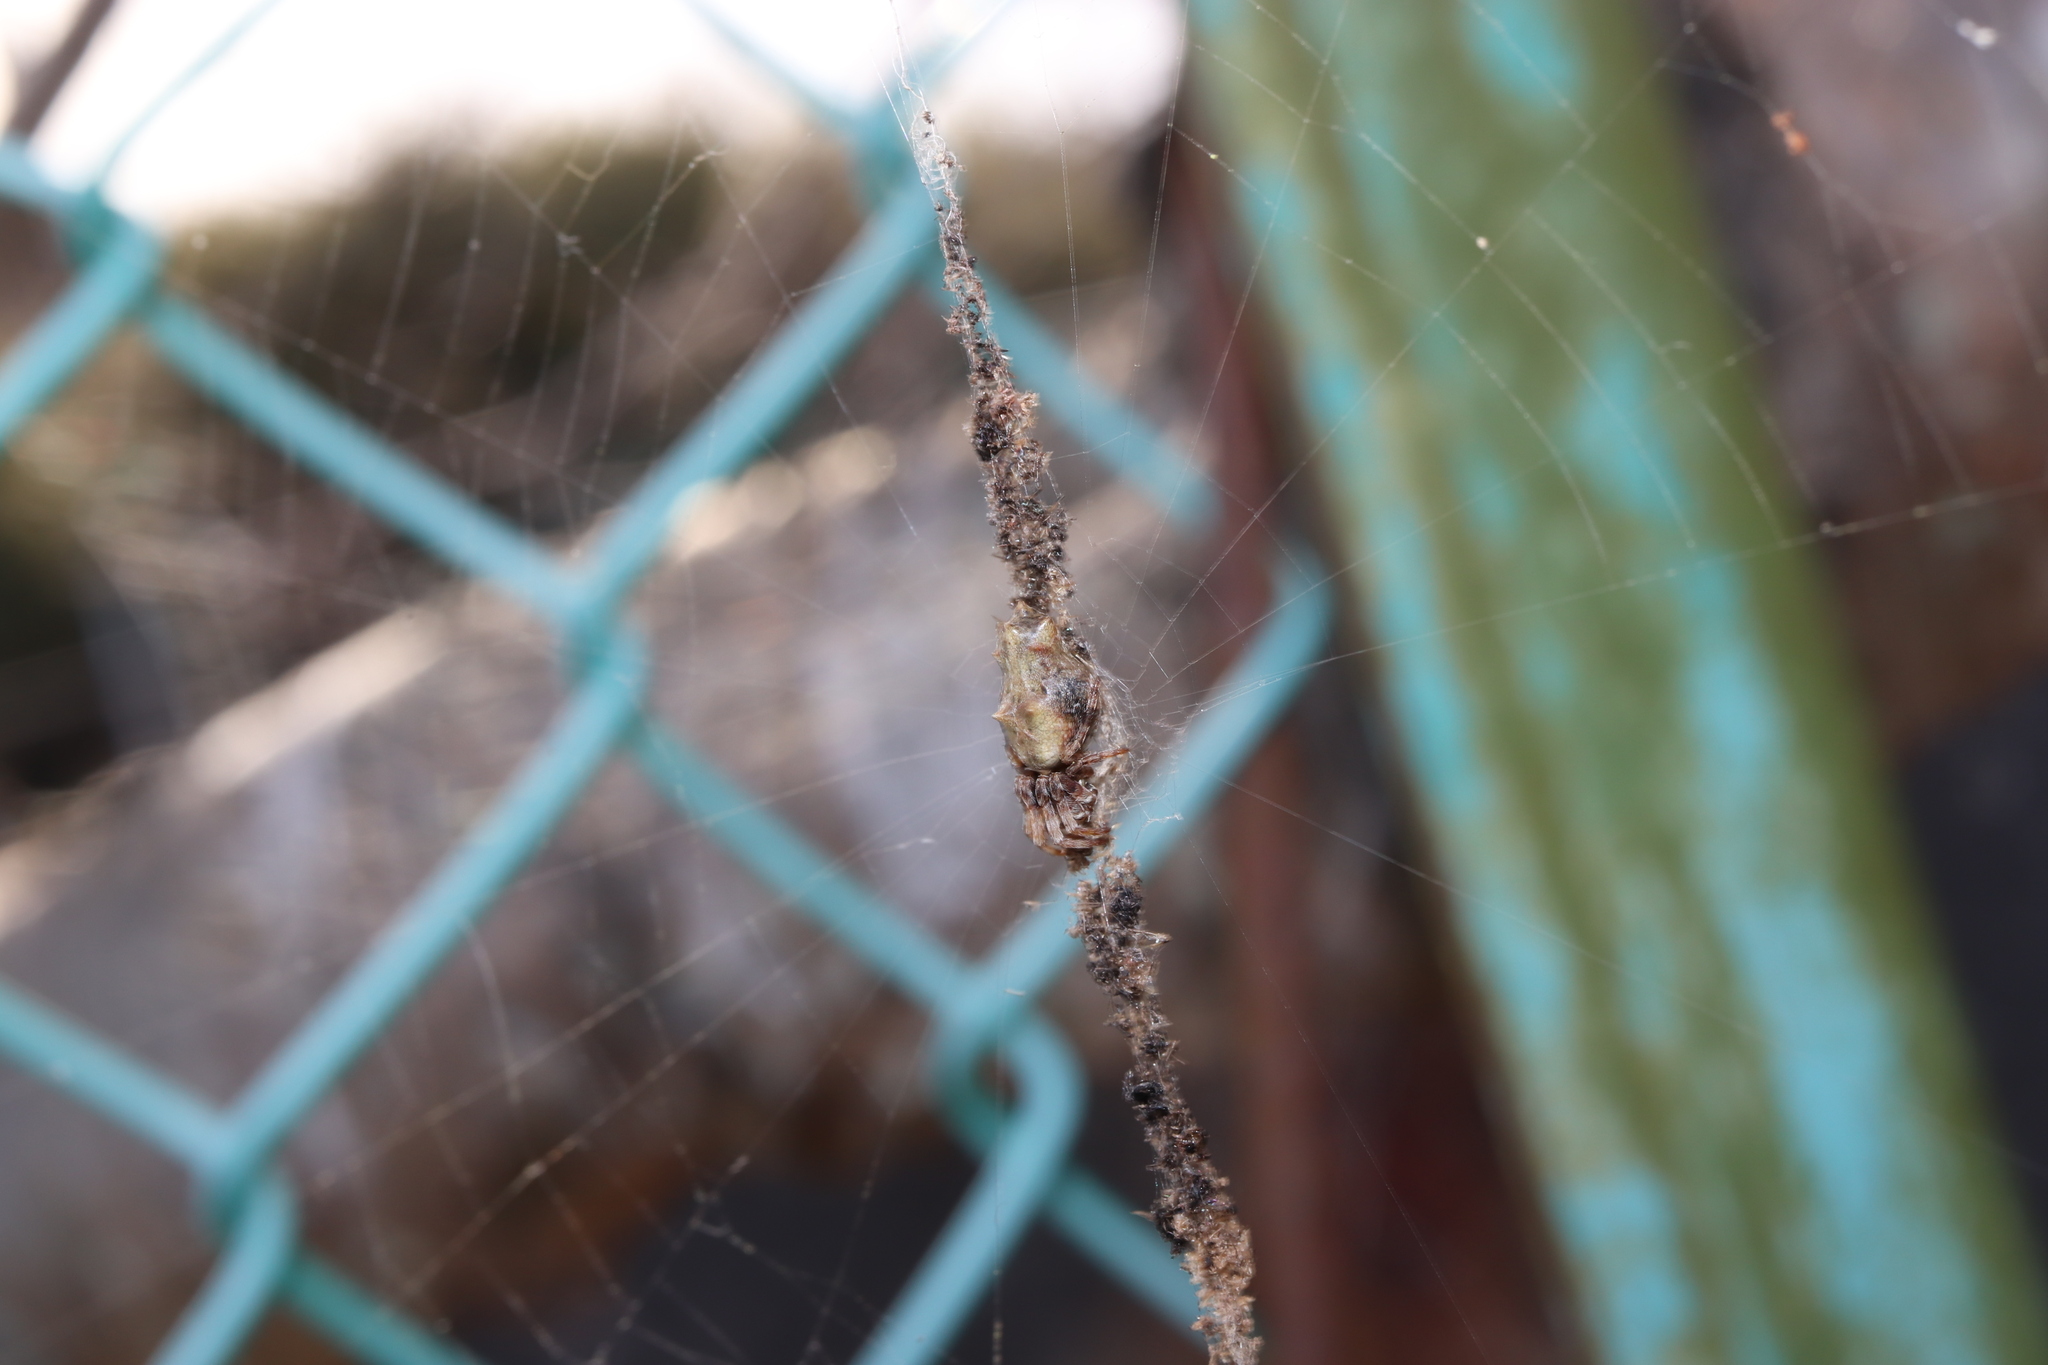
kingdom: Animalia
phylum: Arthropoda
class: Arachnida
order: Araneae
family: Araneidae
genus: Cyclosa
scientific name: Cyclosa octotuberculata
